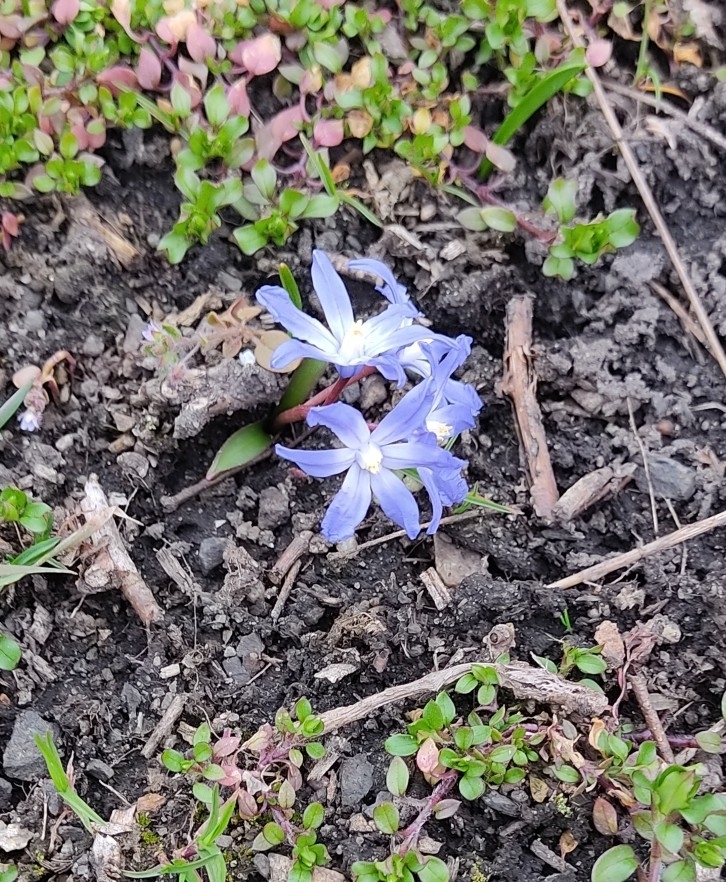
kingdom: Plantae
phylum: Tracheophyta
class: Liliopsida
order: Asparagales
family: Asparagaceae
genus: Scilla
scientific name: Scilla luciliae
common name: Boissier's glory-of-the-snow
